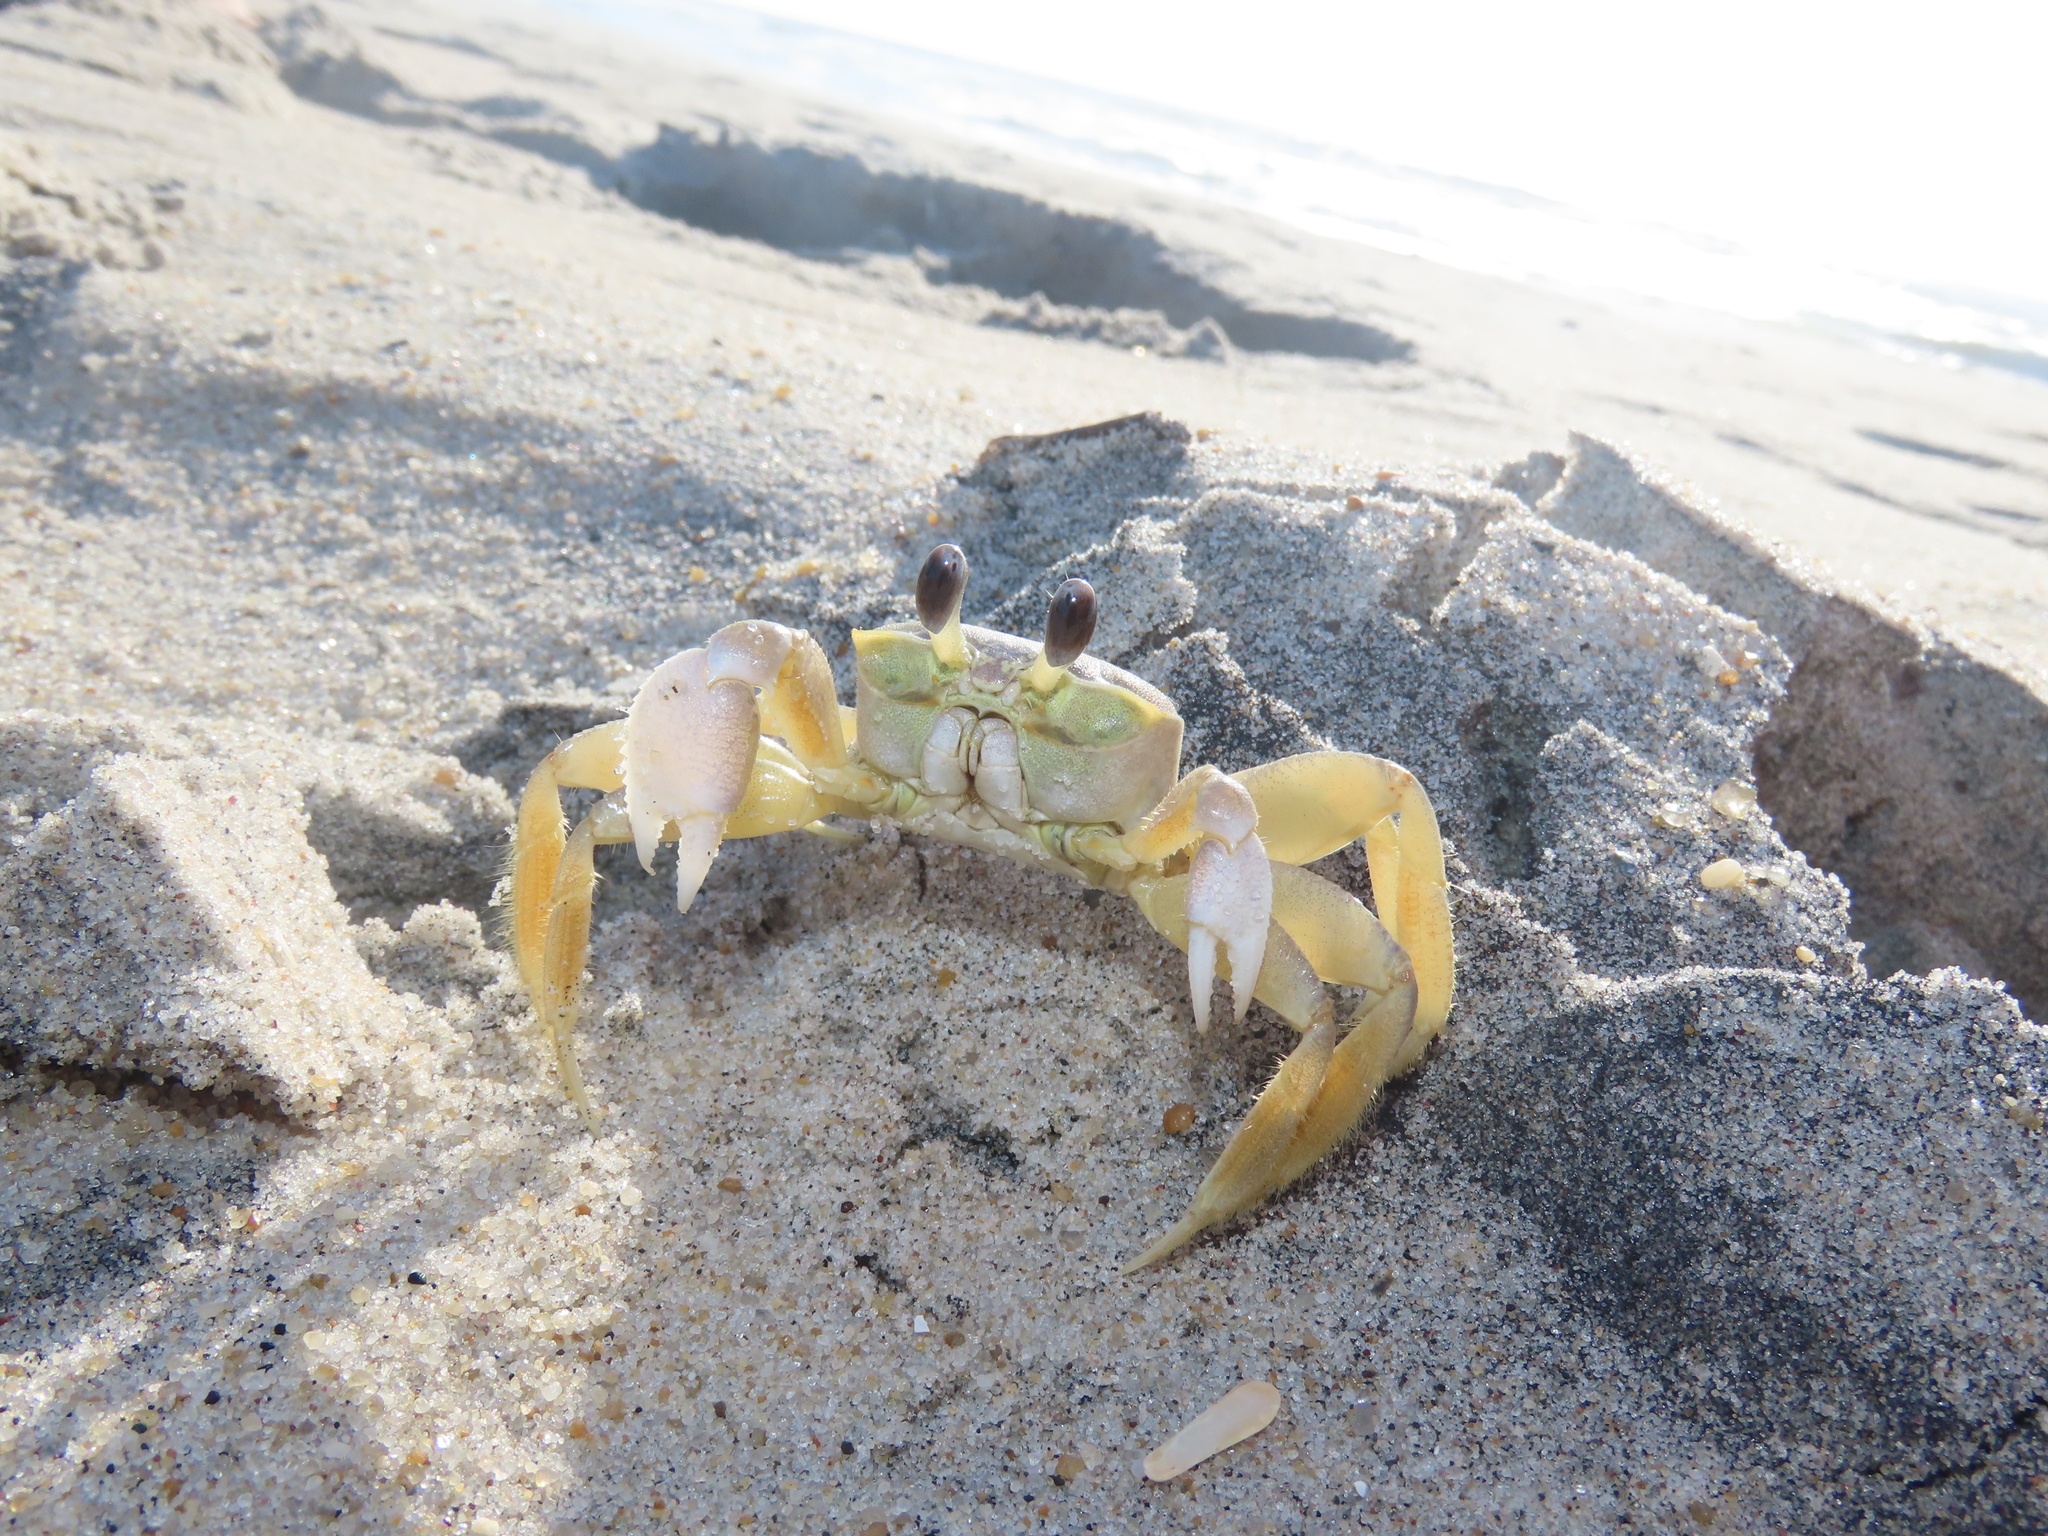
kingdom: Animalia
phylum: Arthropoda
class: Malacostraca
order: Decapoda
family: Ocypodidae
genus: Ocypode
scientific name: Ocypode quadrata
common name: Ghost crab
